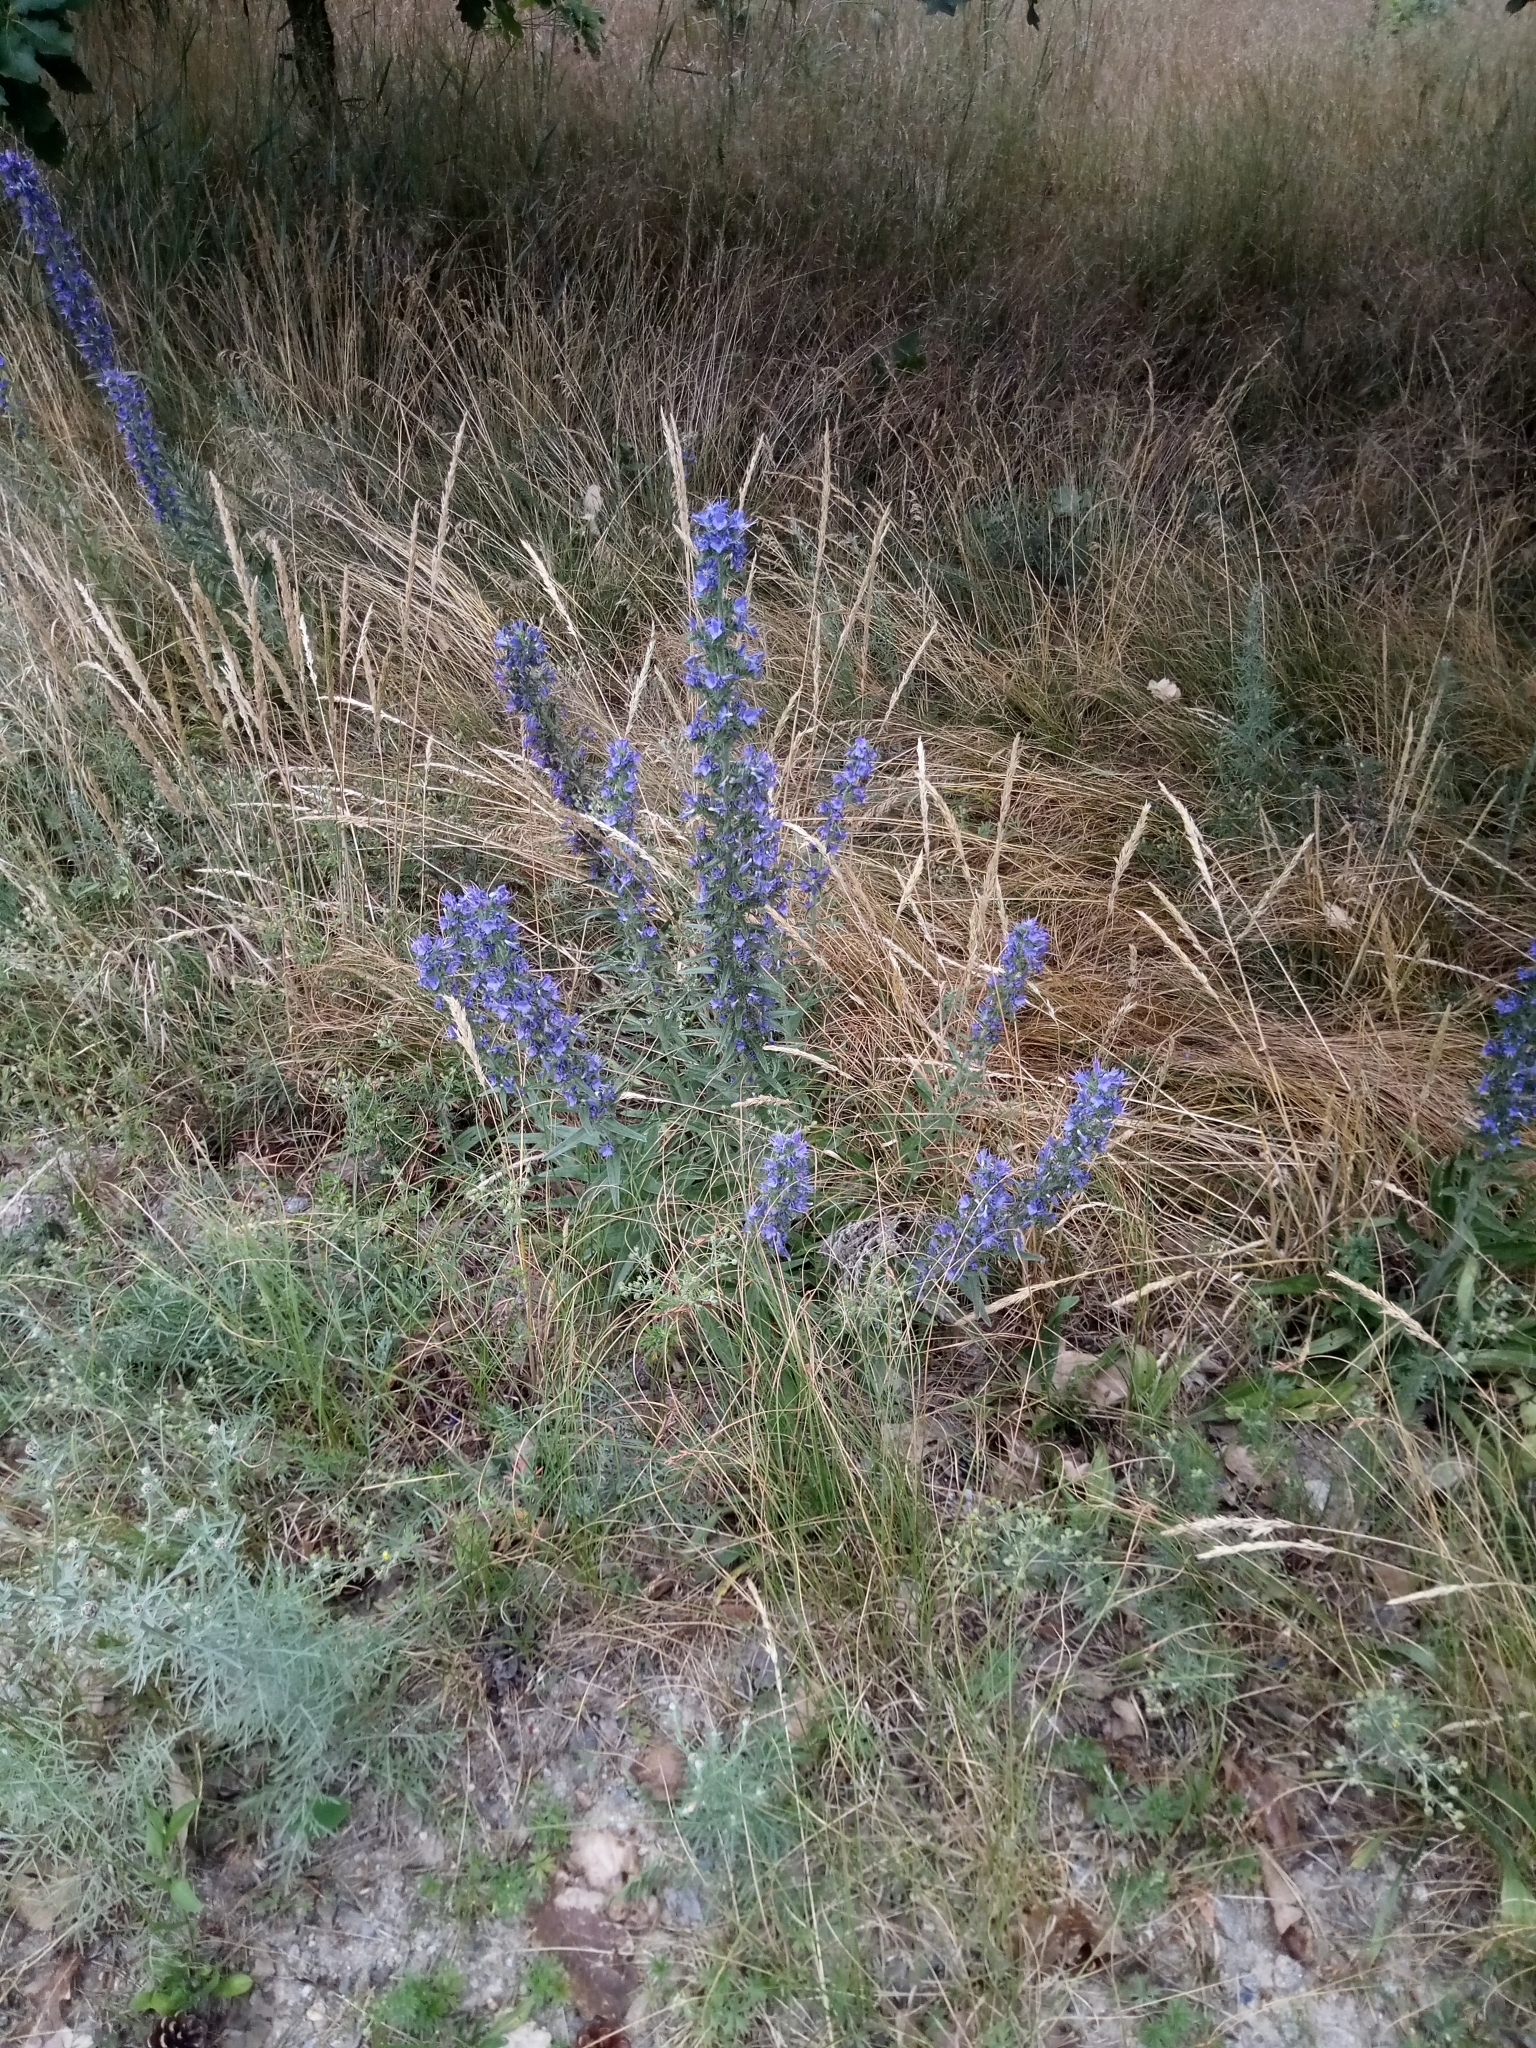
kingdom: Plantae
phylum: Tracheophyta
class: Magnoliopsida
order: Boraginales
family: Boraginaceae
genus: Echium
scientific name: Echium vulgare
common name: Common viper's bugloss
